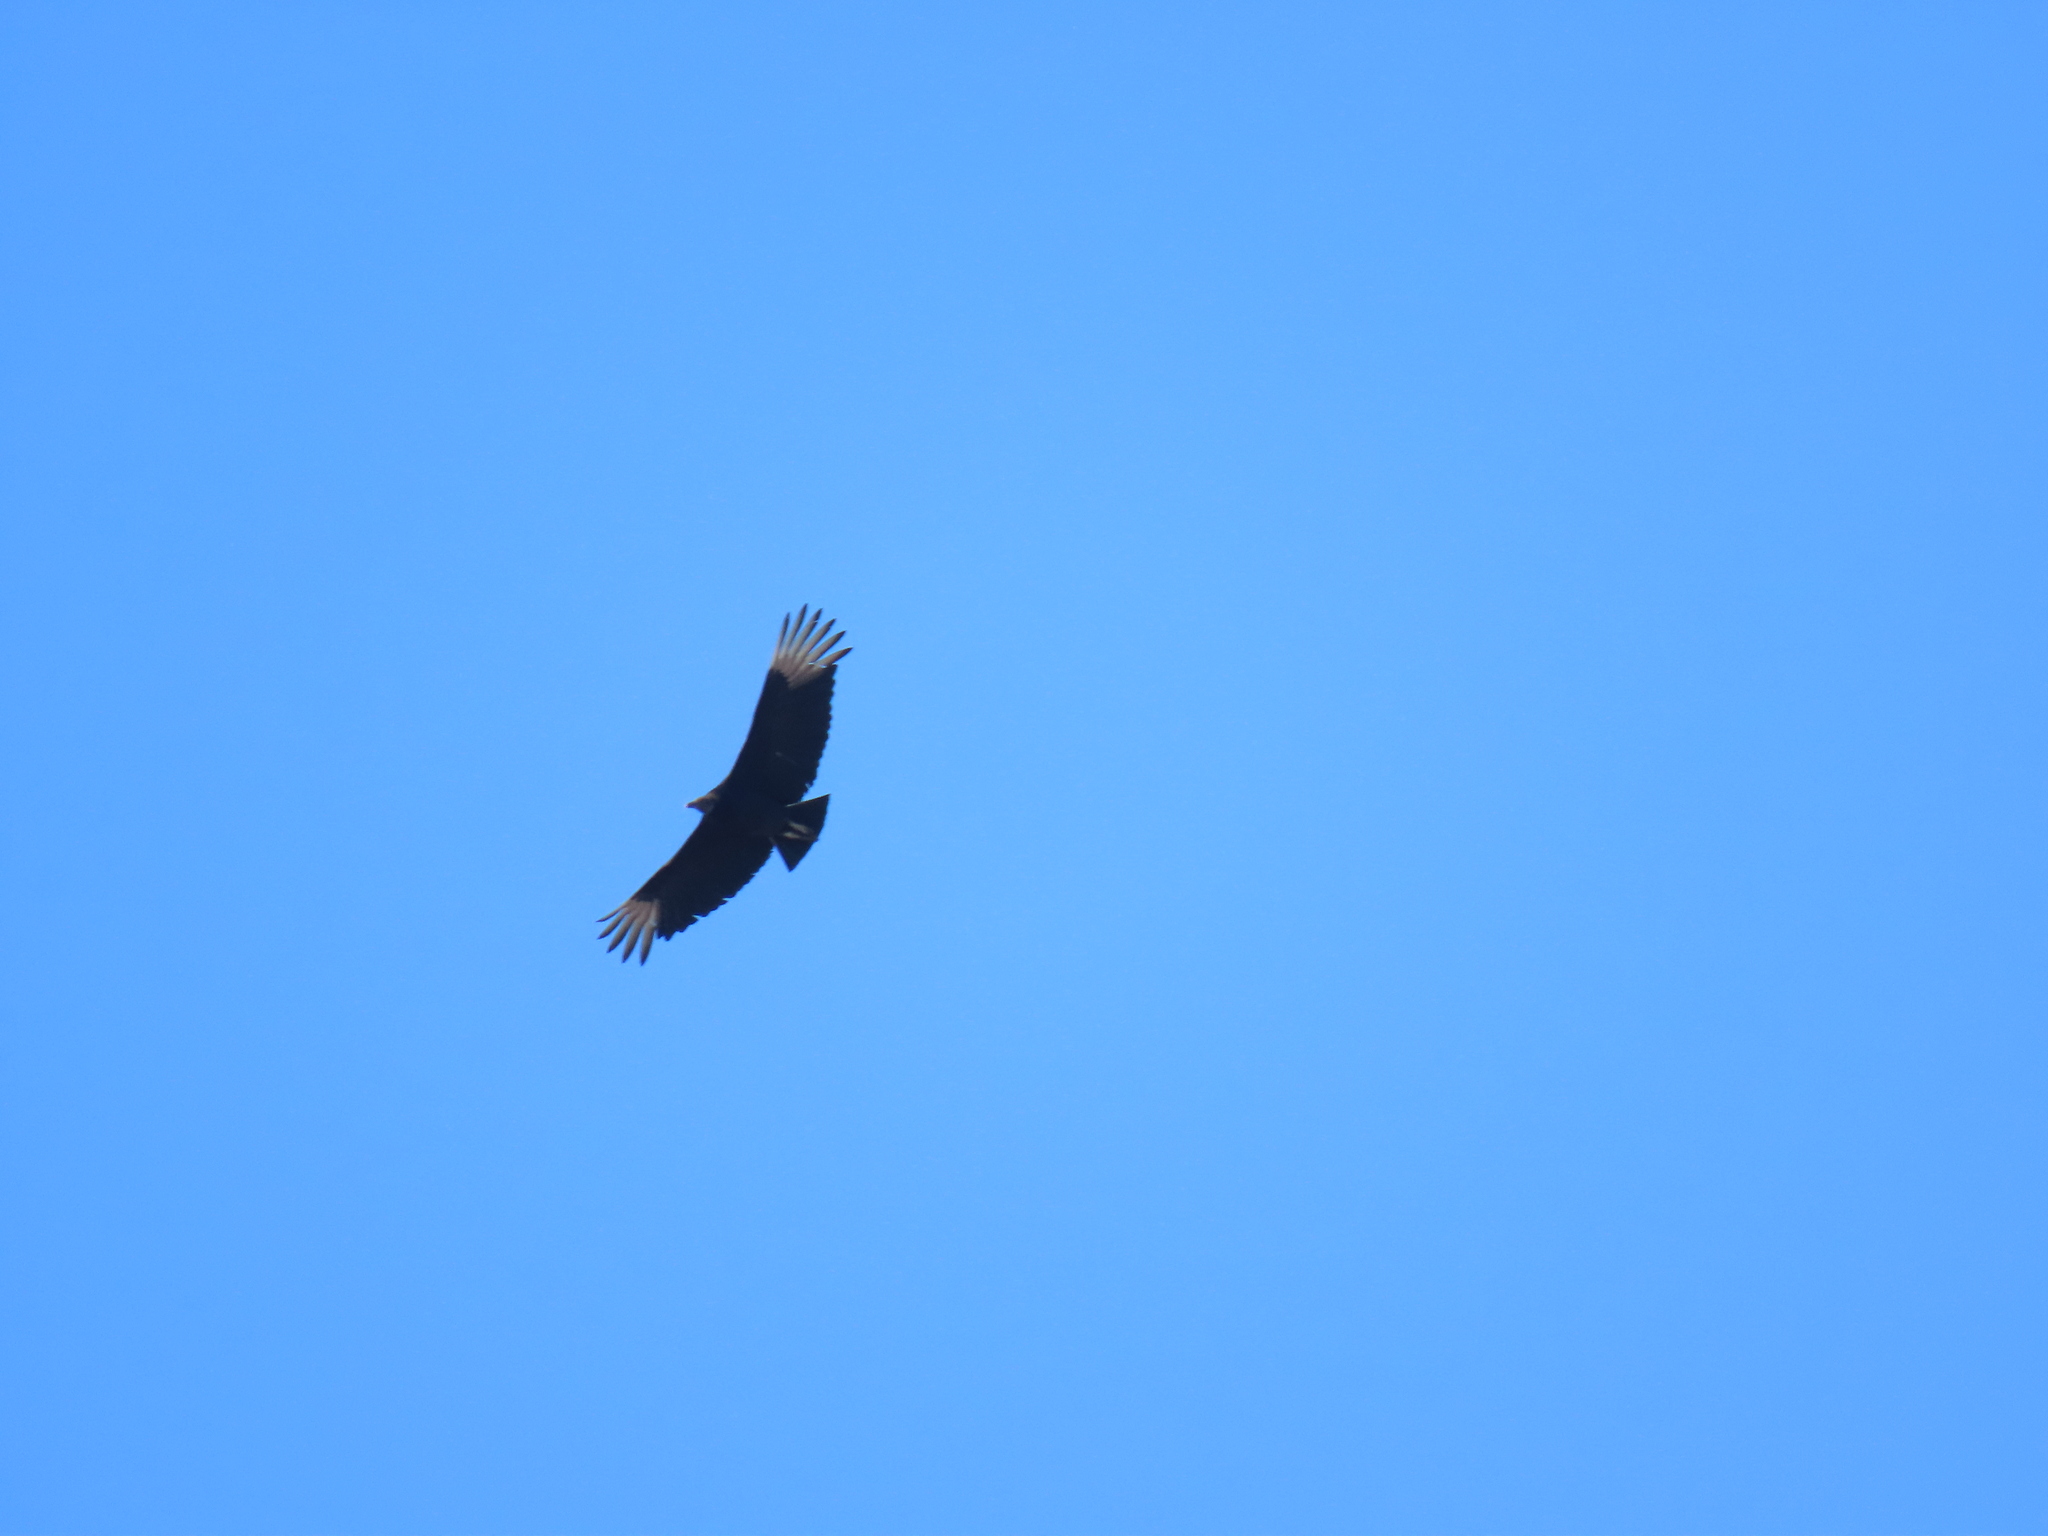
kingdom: Animalia
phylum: Chordata
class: Aves
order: Accipitriformes
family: Cathartidae
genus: Coragyps
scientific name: Coragyps atratus
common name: Black vulture
